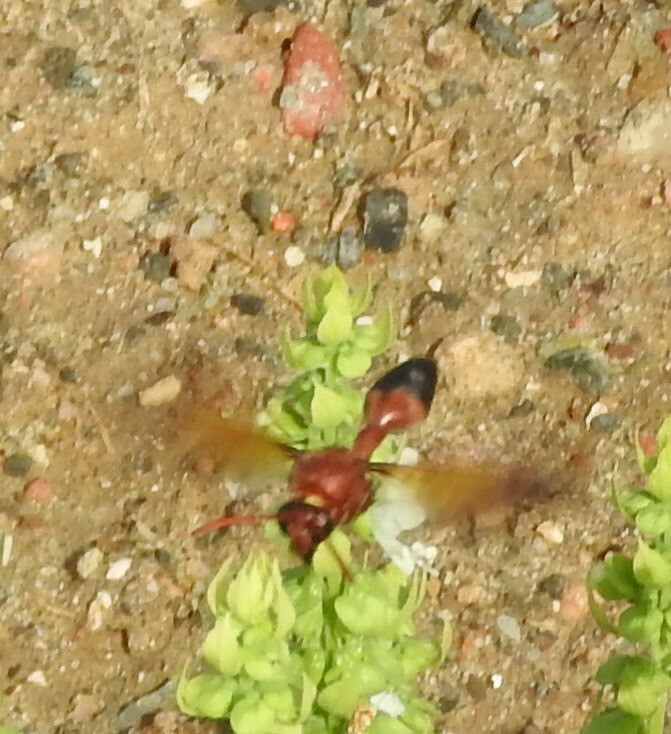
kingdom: Animalia
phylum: Arthropoda
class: Insecta
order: Hymenoptera
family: Eumenidae
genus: Delta
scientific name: Delta dimidiatipenne
